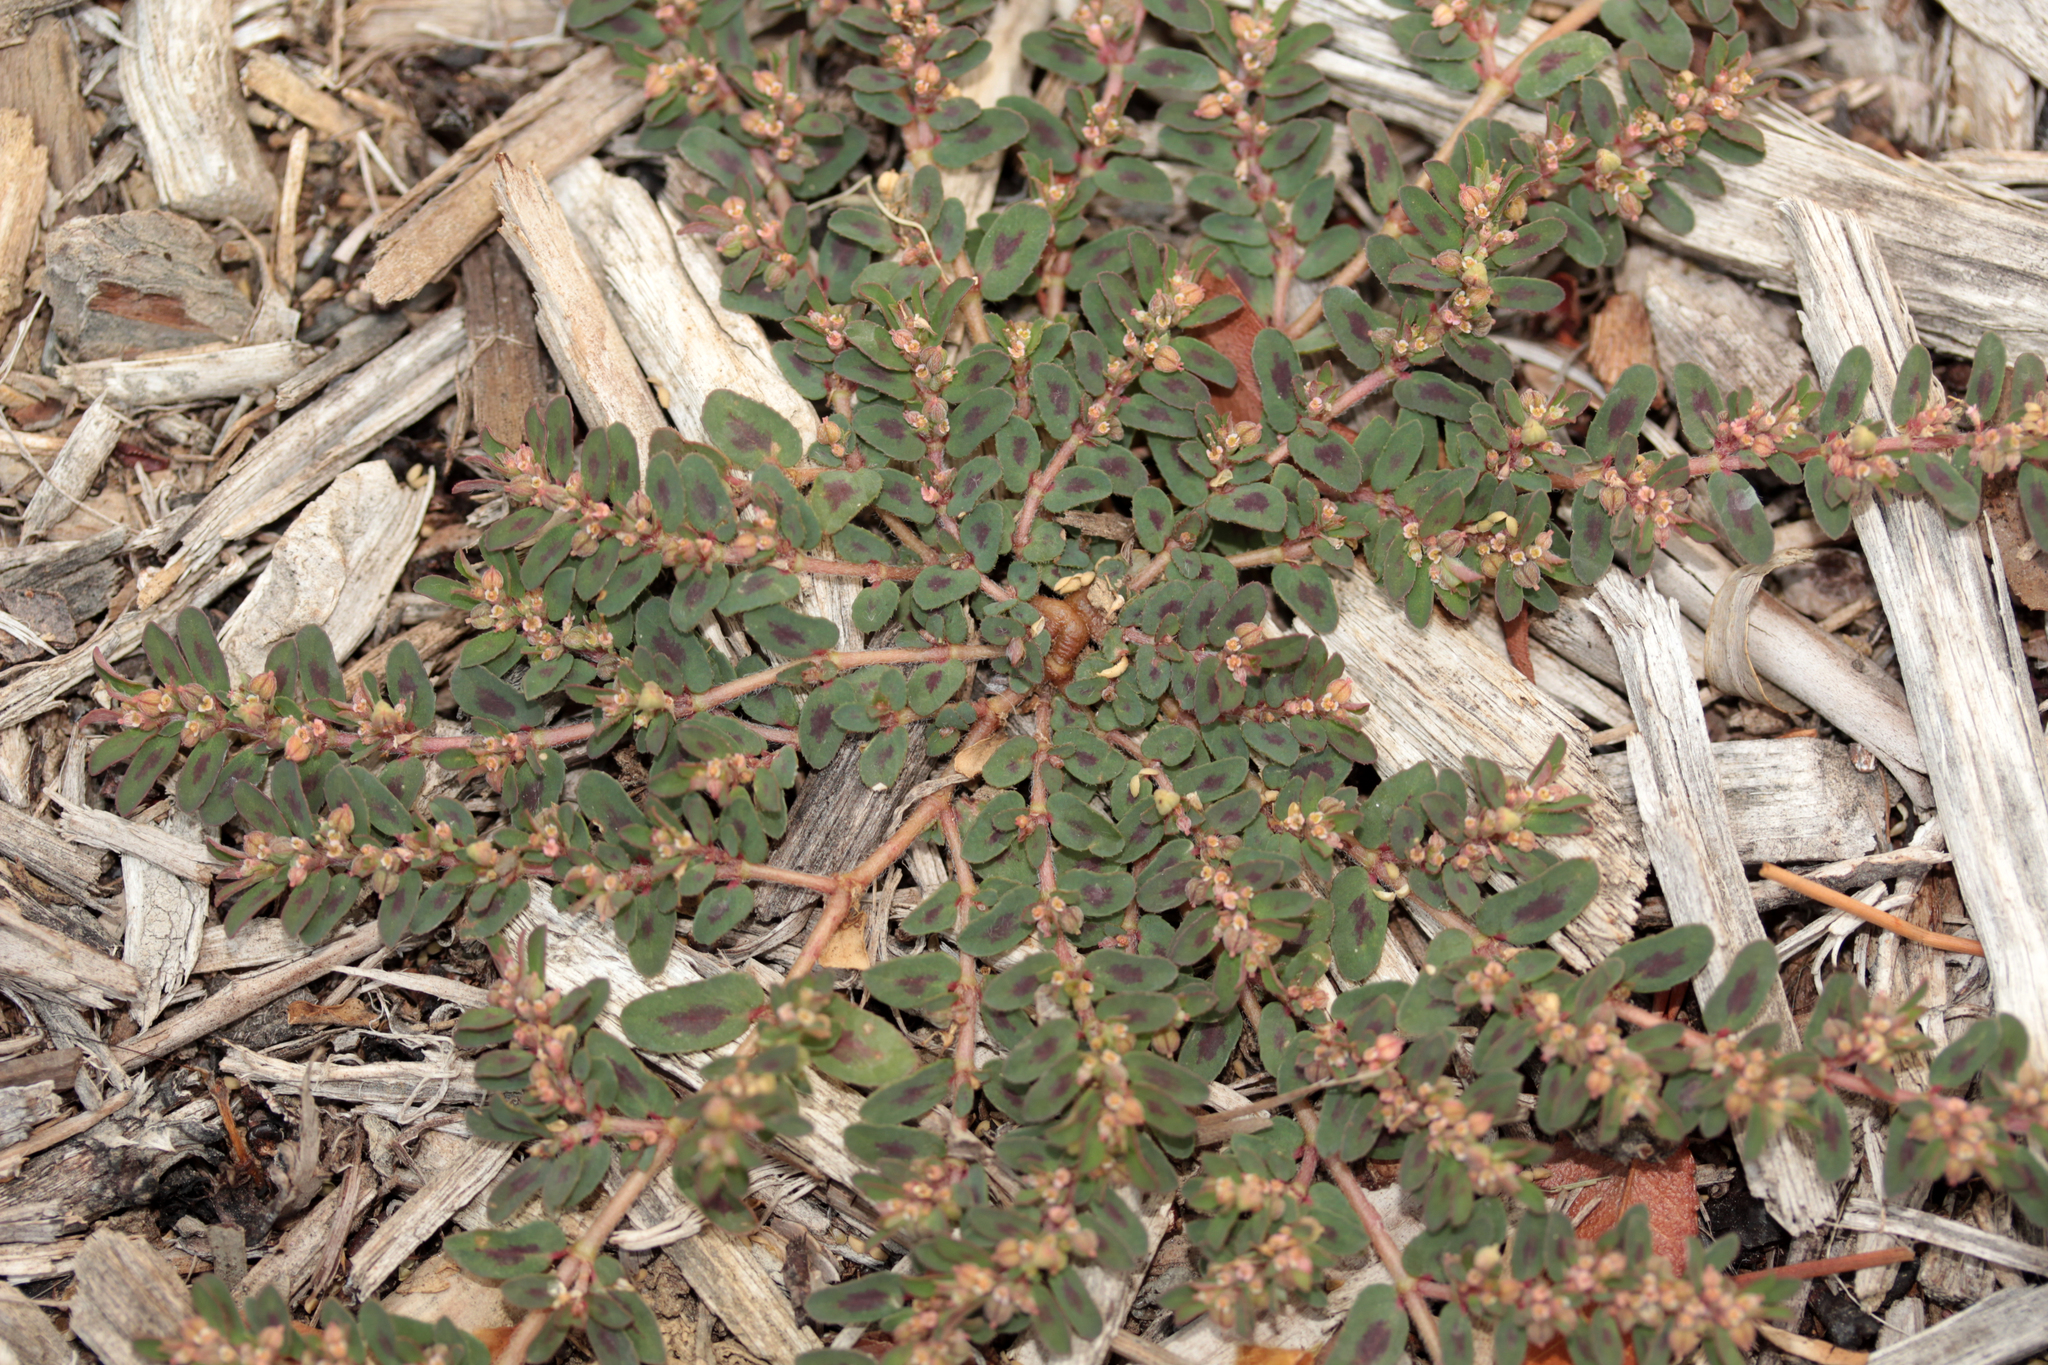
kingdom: Plantae
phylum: Tracheophyta
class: Magnoliopsida
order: Malpighiales
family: Euphorbiaceae
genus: Euphorbia
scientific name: Euphorbia maculata
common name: Spotted spurge
